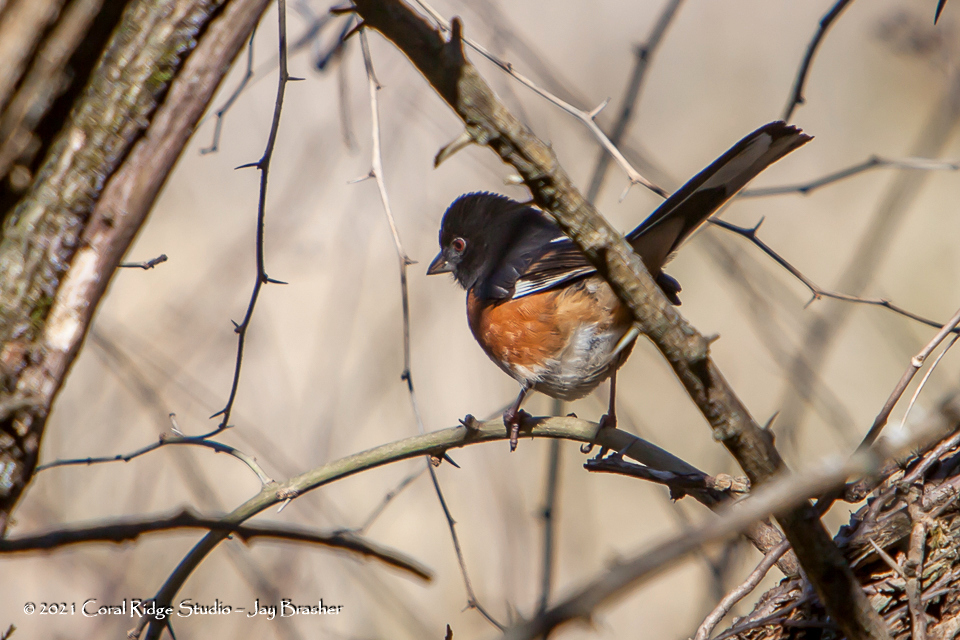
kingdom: Animalia
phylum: Chordata
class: Aves
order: Passeriformes
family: Passerellidae
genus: Pipilo
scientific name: Pipilo erythrophthalmus
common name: Eastern towhee
